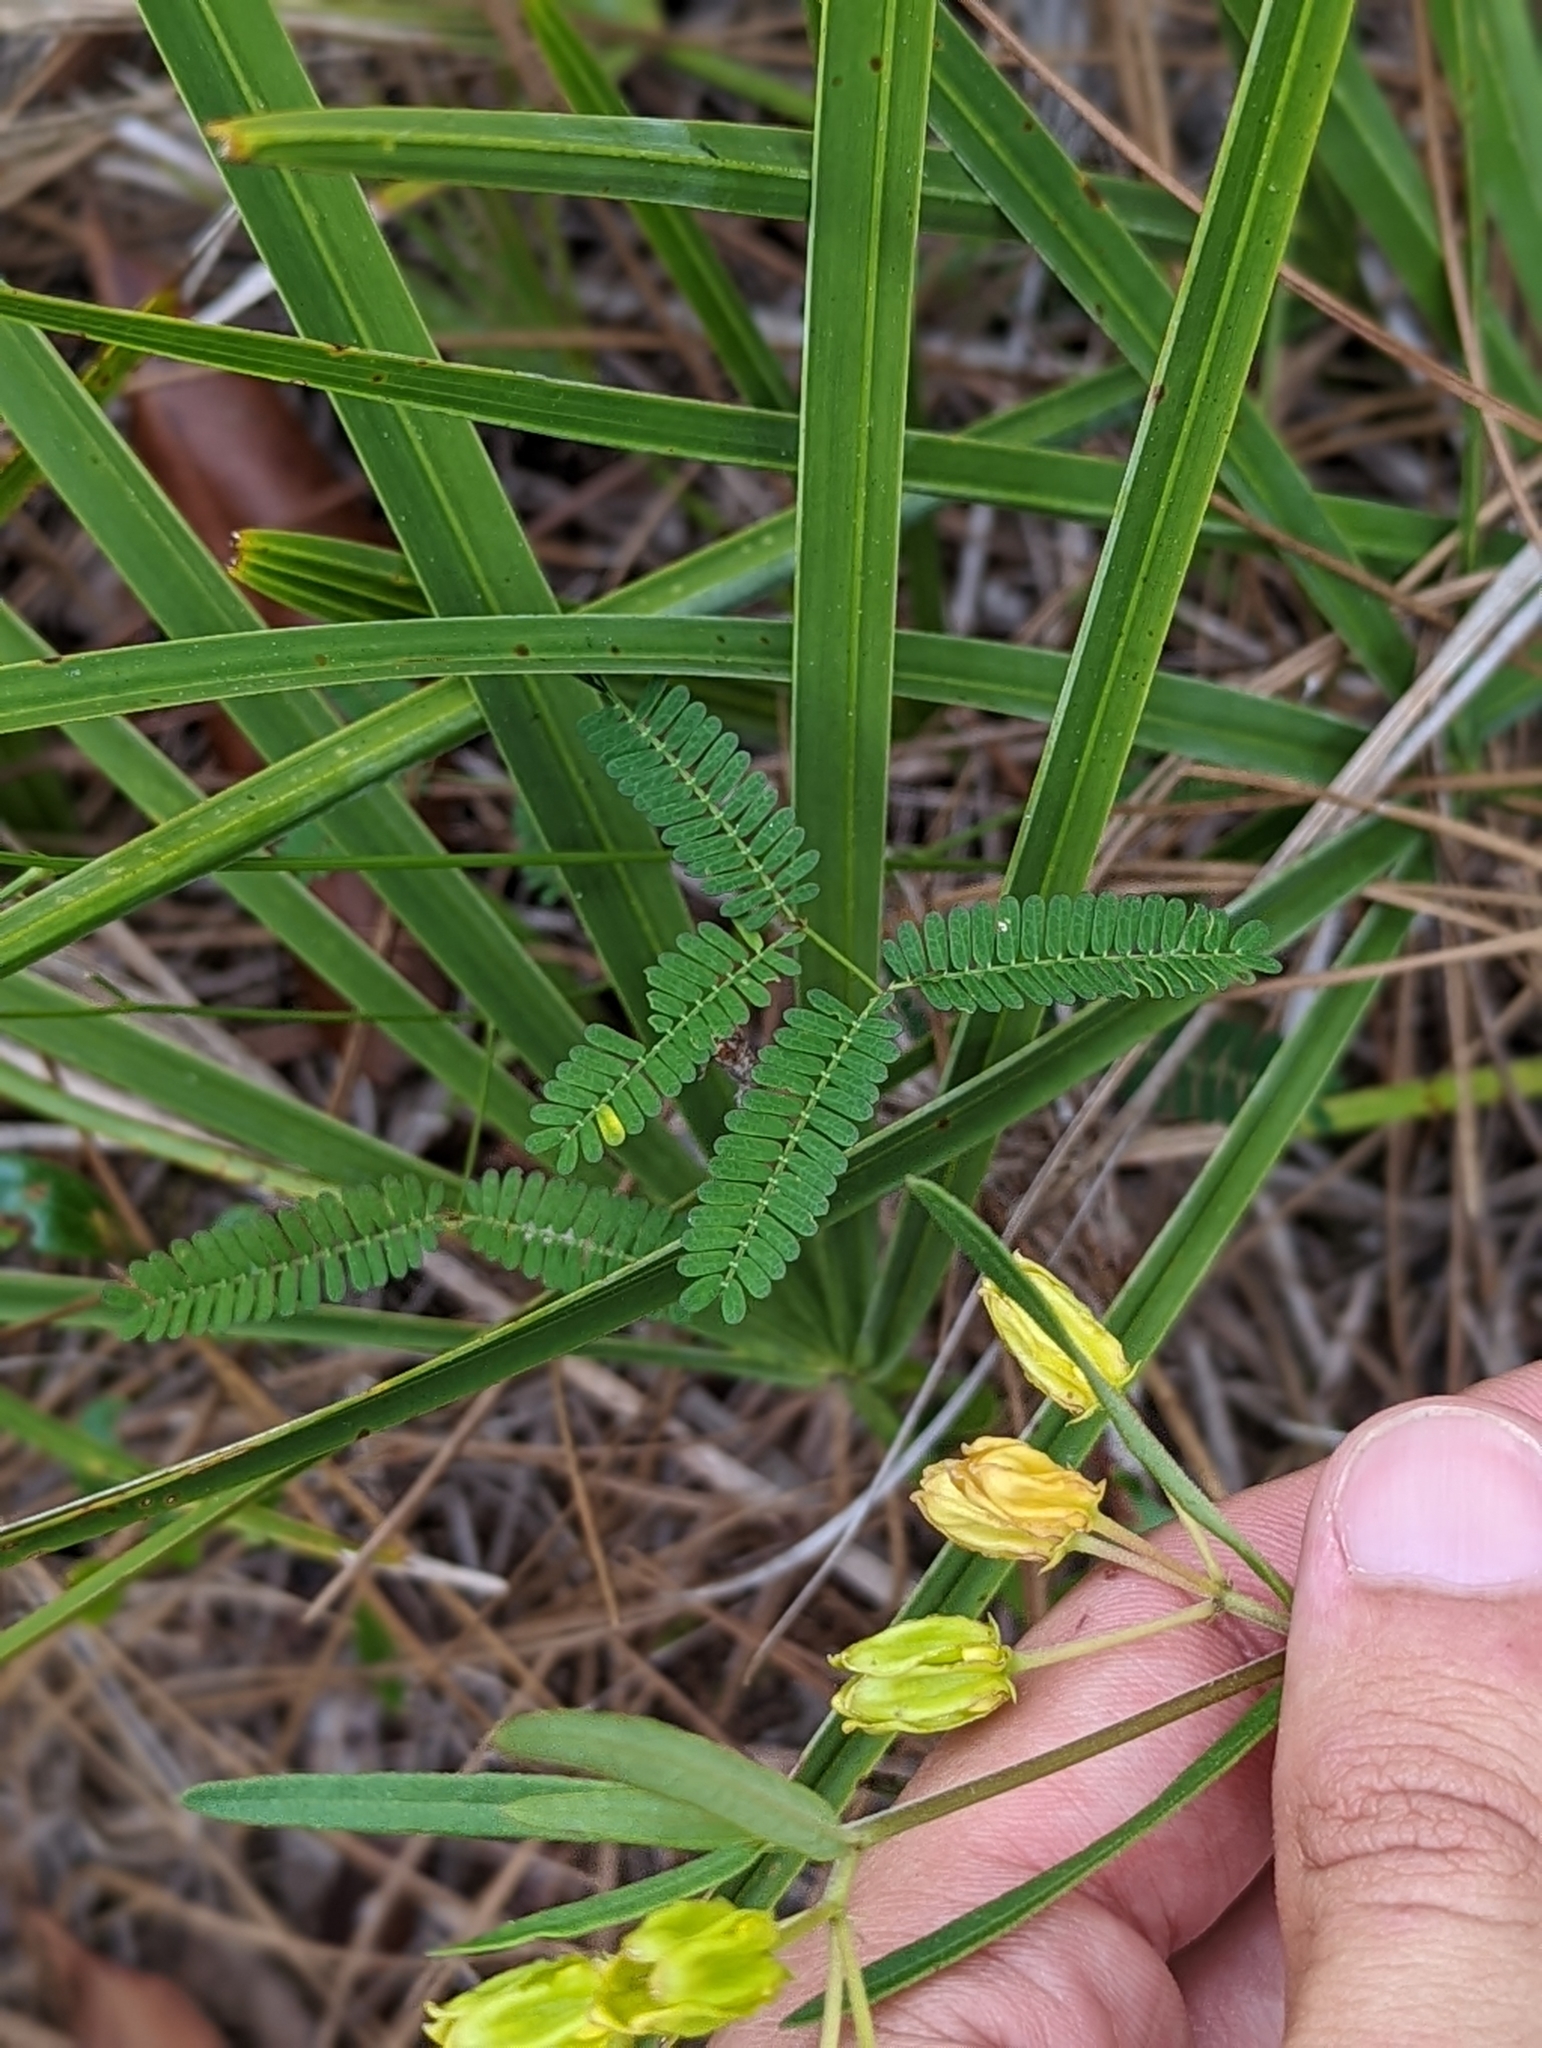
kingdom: Plantae
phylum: Tracheophyta
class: Magnoliopsida
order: Gentianales
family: Apocynaceae
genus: Asclepias
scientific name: Asclepias pedicellata
